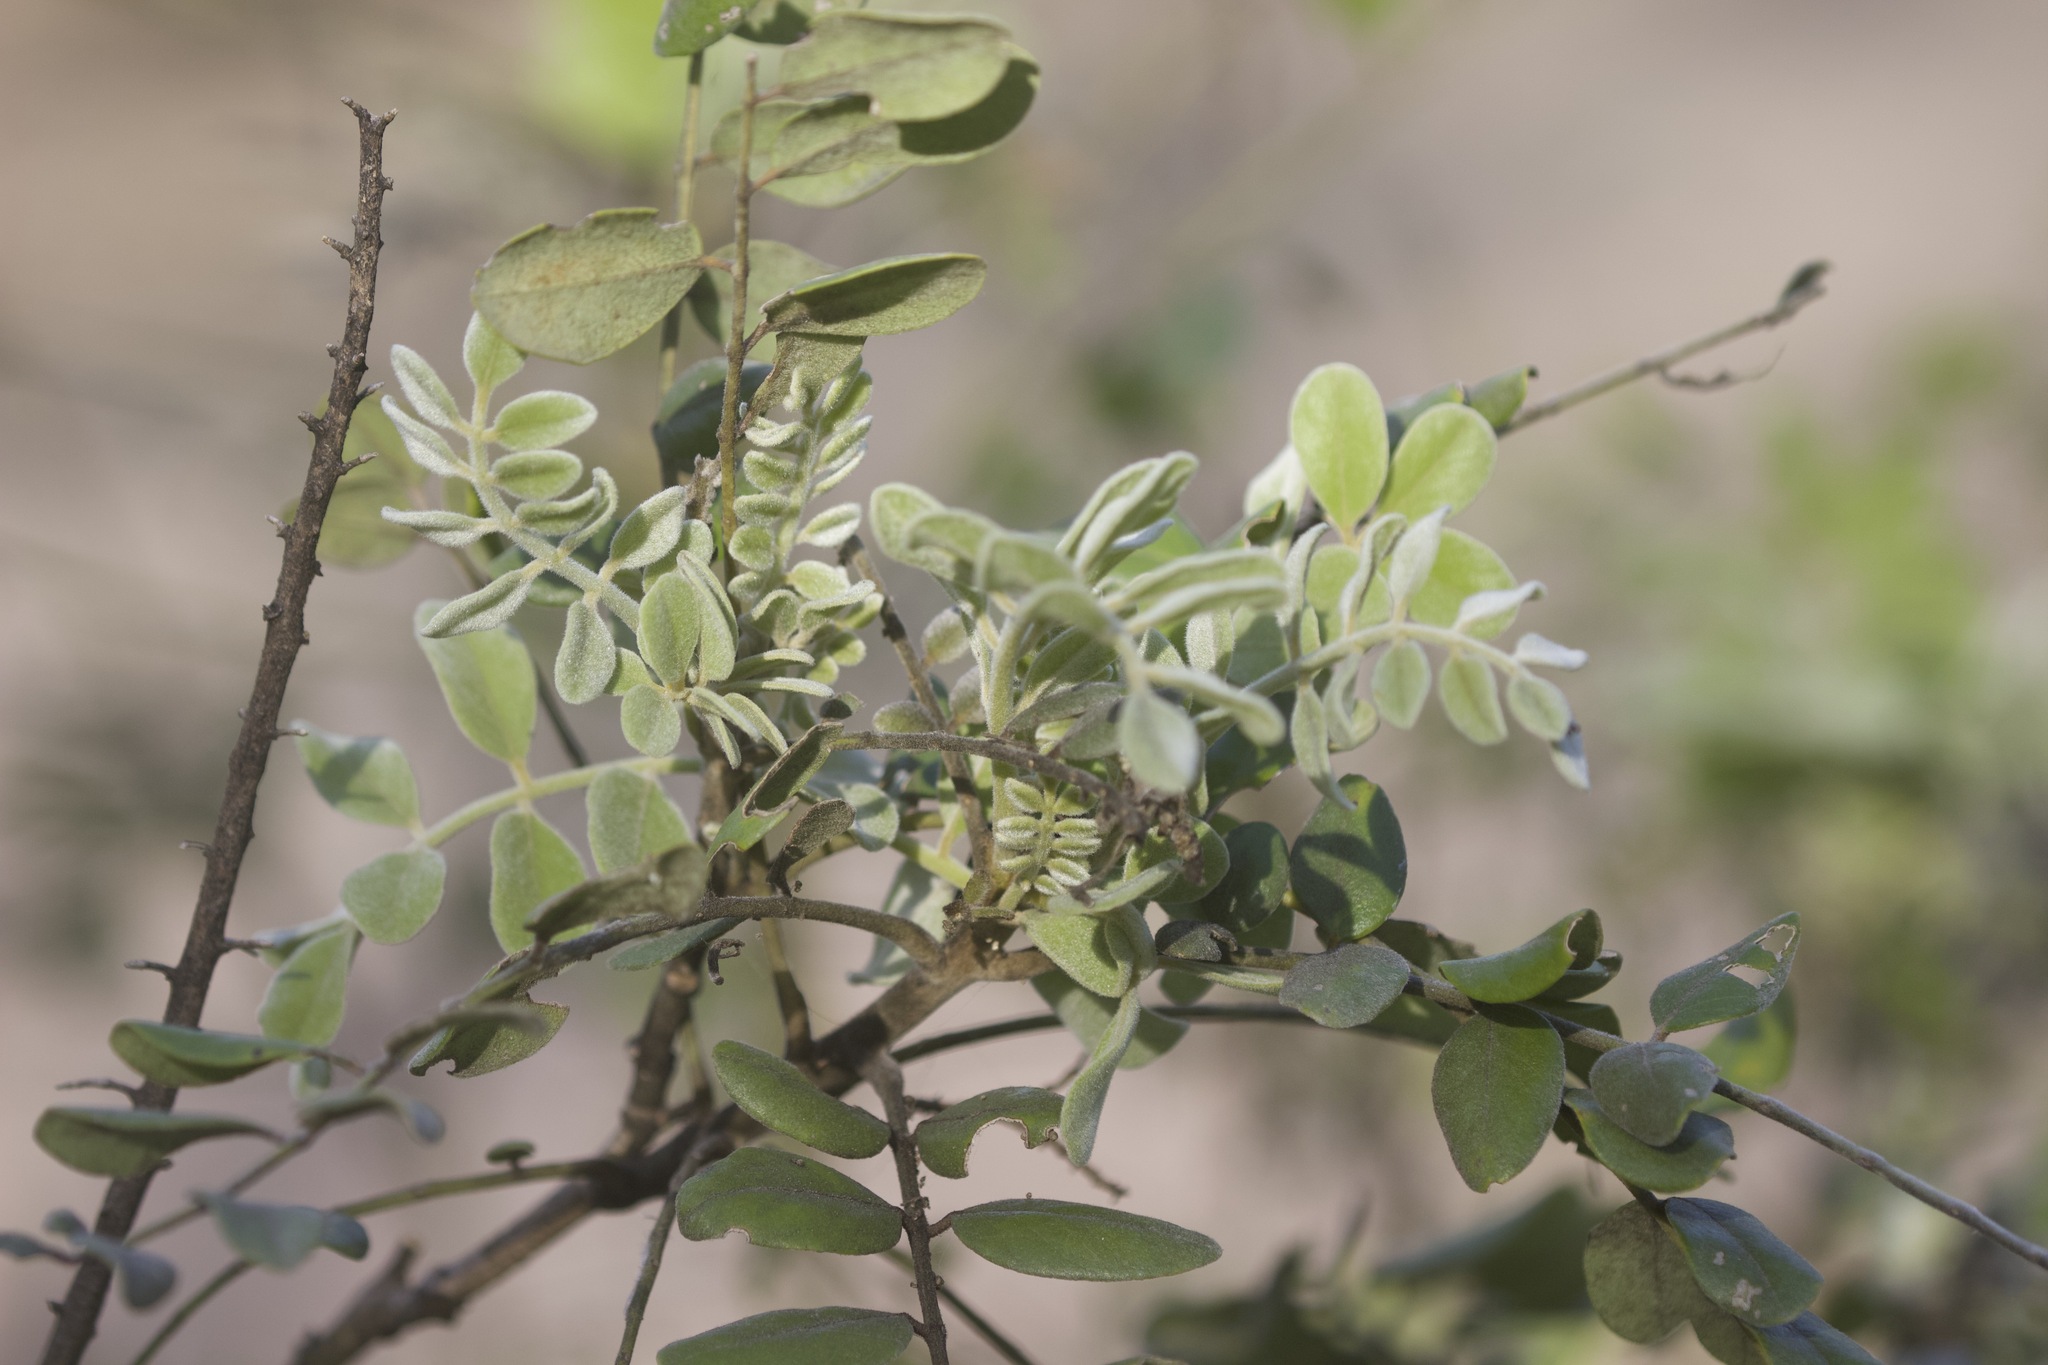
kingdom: Plantae
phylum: Tracheophyta
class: Magnoliopsida
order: Fabales
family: Fabaceae
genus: Sophora
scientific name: Sophora tomentosa
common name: Yellow necklacepod
